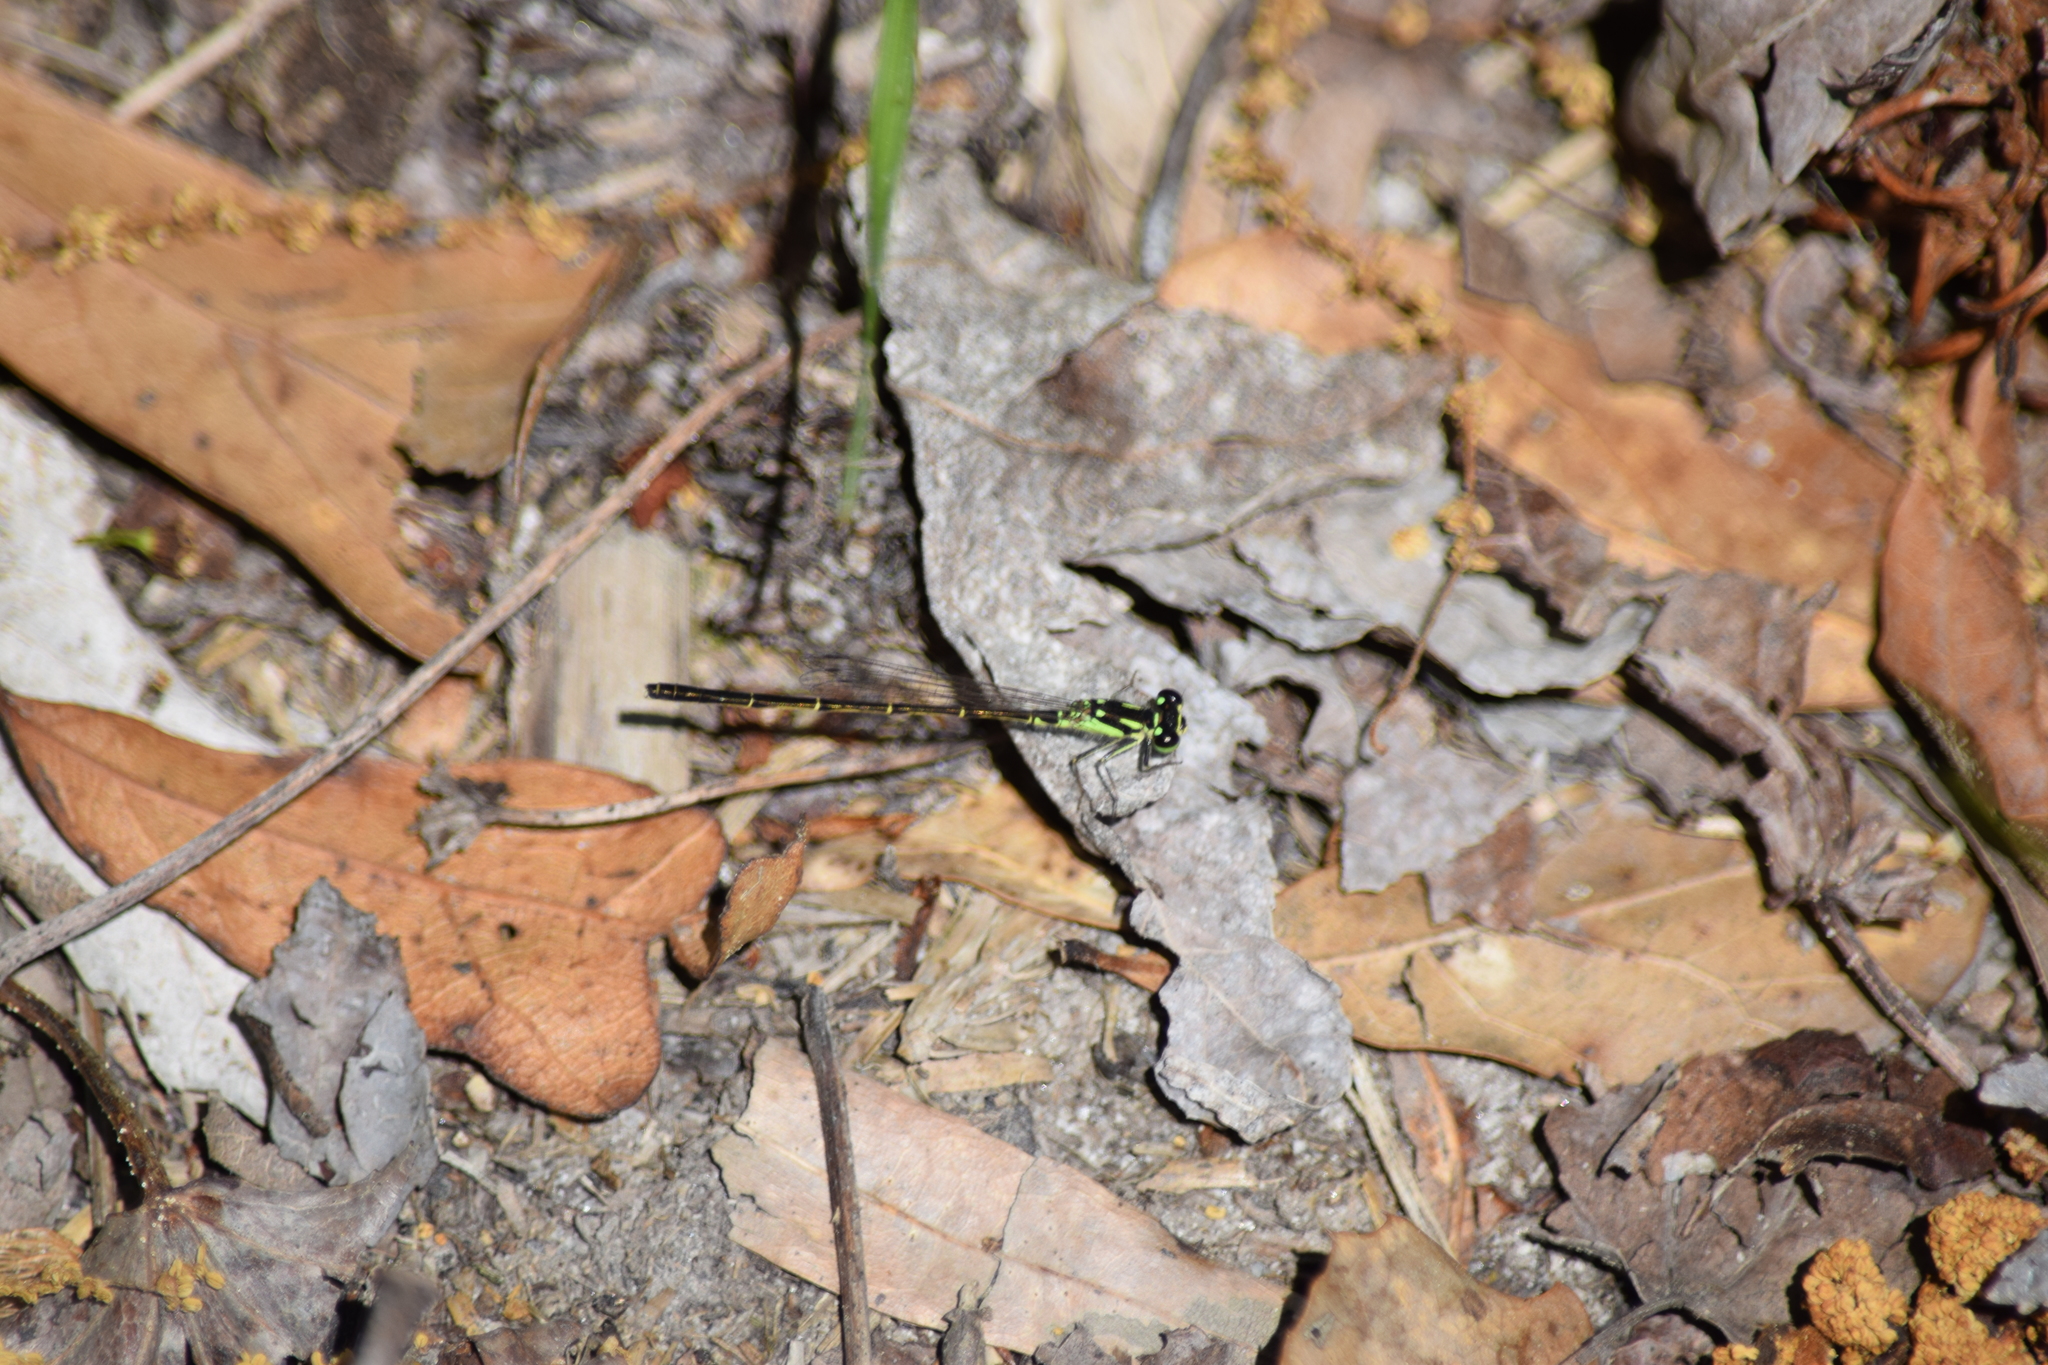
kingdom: Animalia
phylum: Arthropoda
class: Insecta
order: Odonata
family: Coenagrionidae
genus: Ischnura
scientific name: Ischnura posita
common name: Fragile forktail
